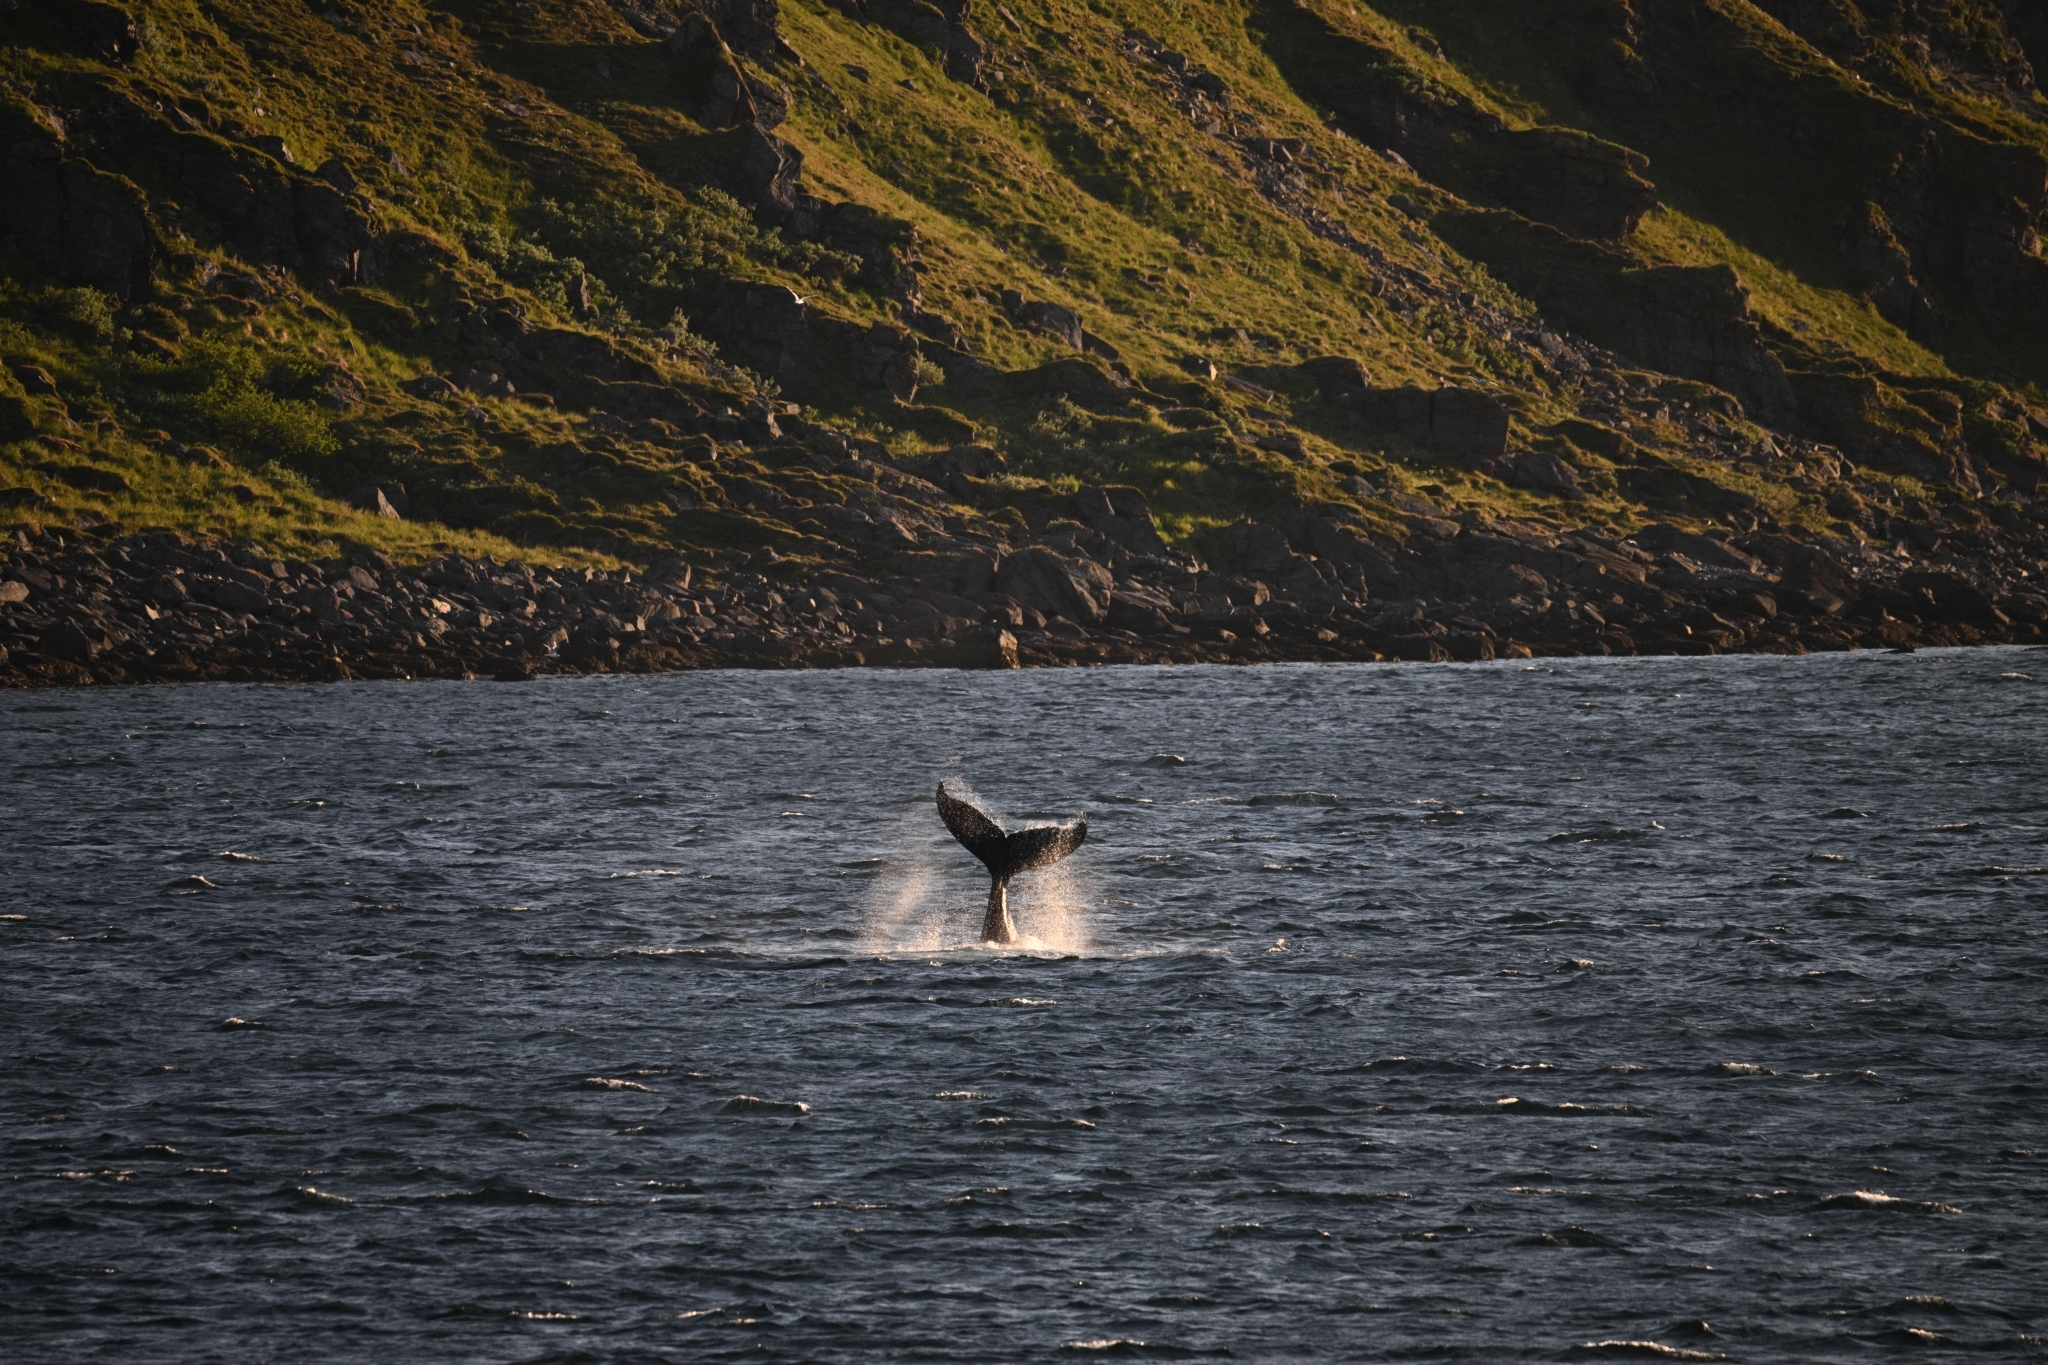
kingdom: Animalia
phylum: Chordata
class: Mammalia
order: Cetacea
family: Balaenopteridae
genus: Megaptera
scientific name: Megaptera novaeangliae
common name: Humpback whale
